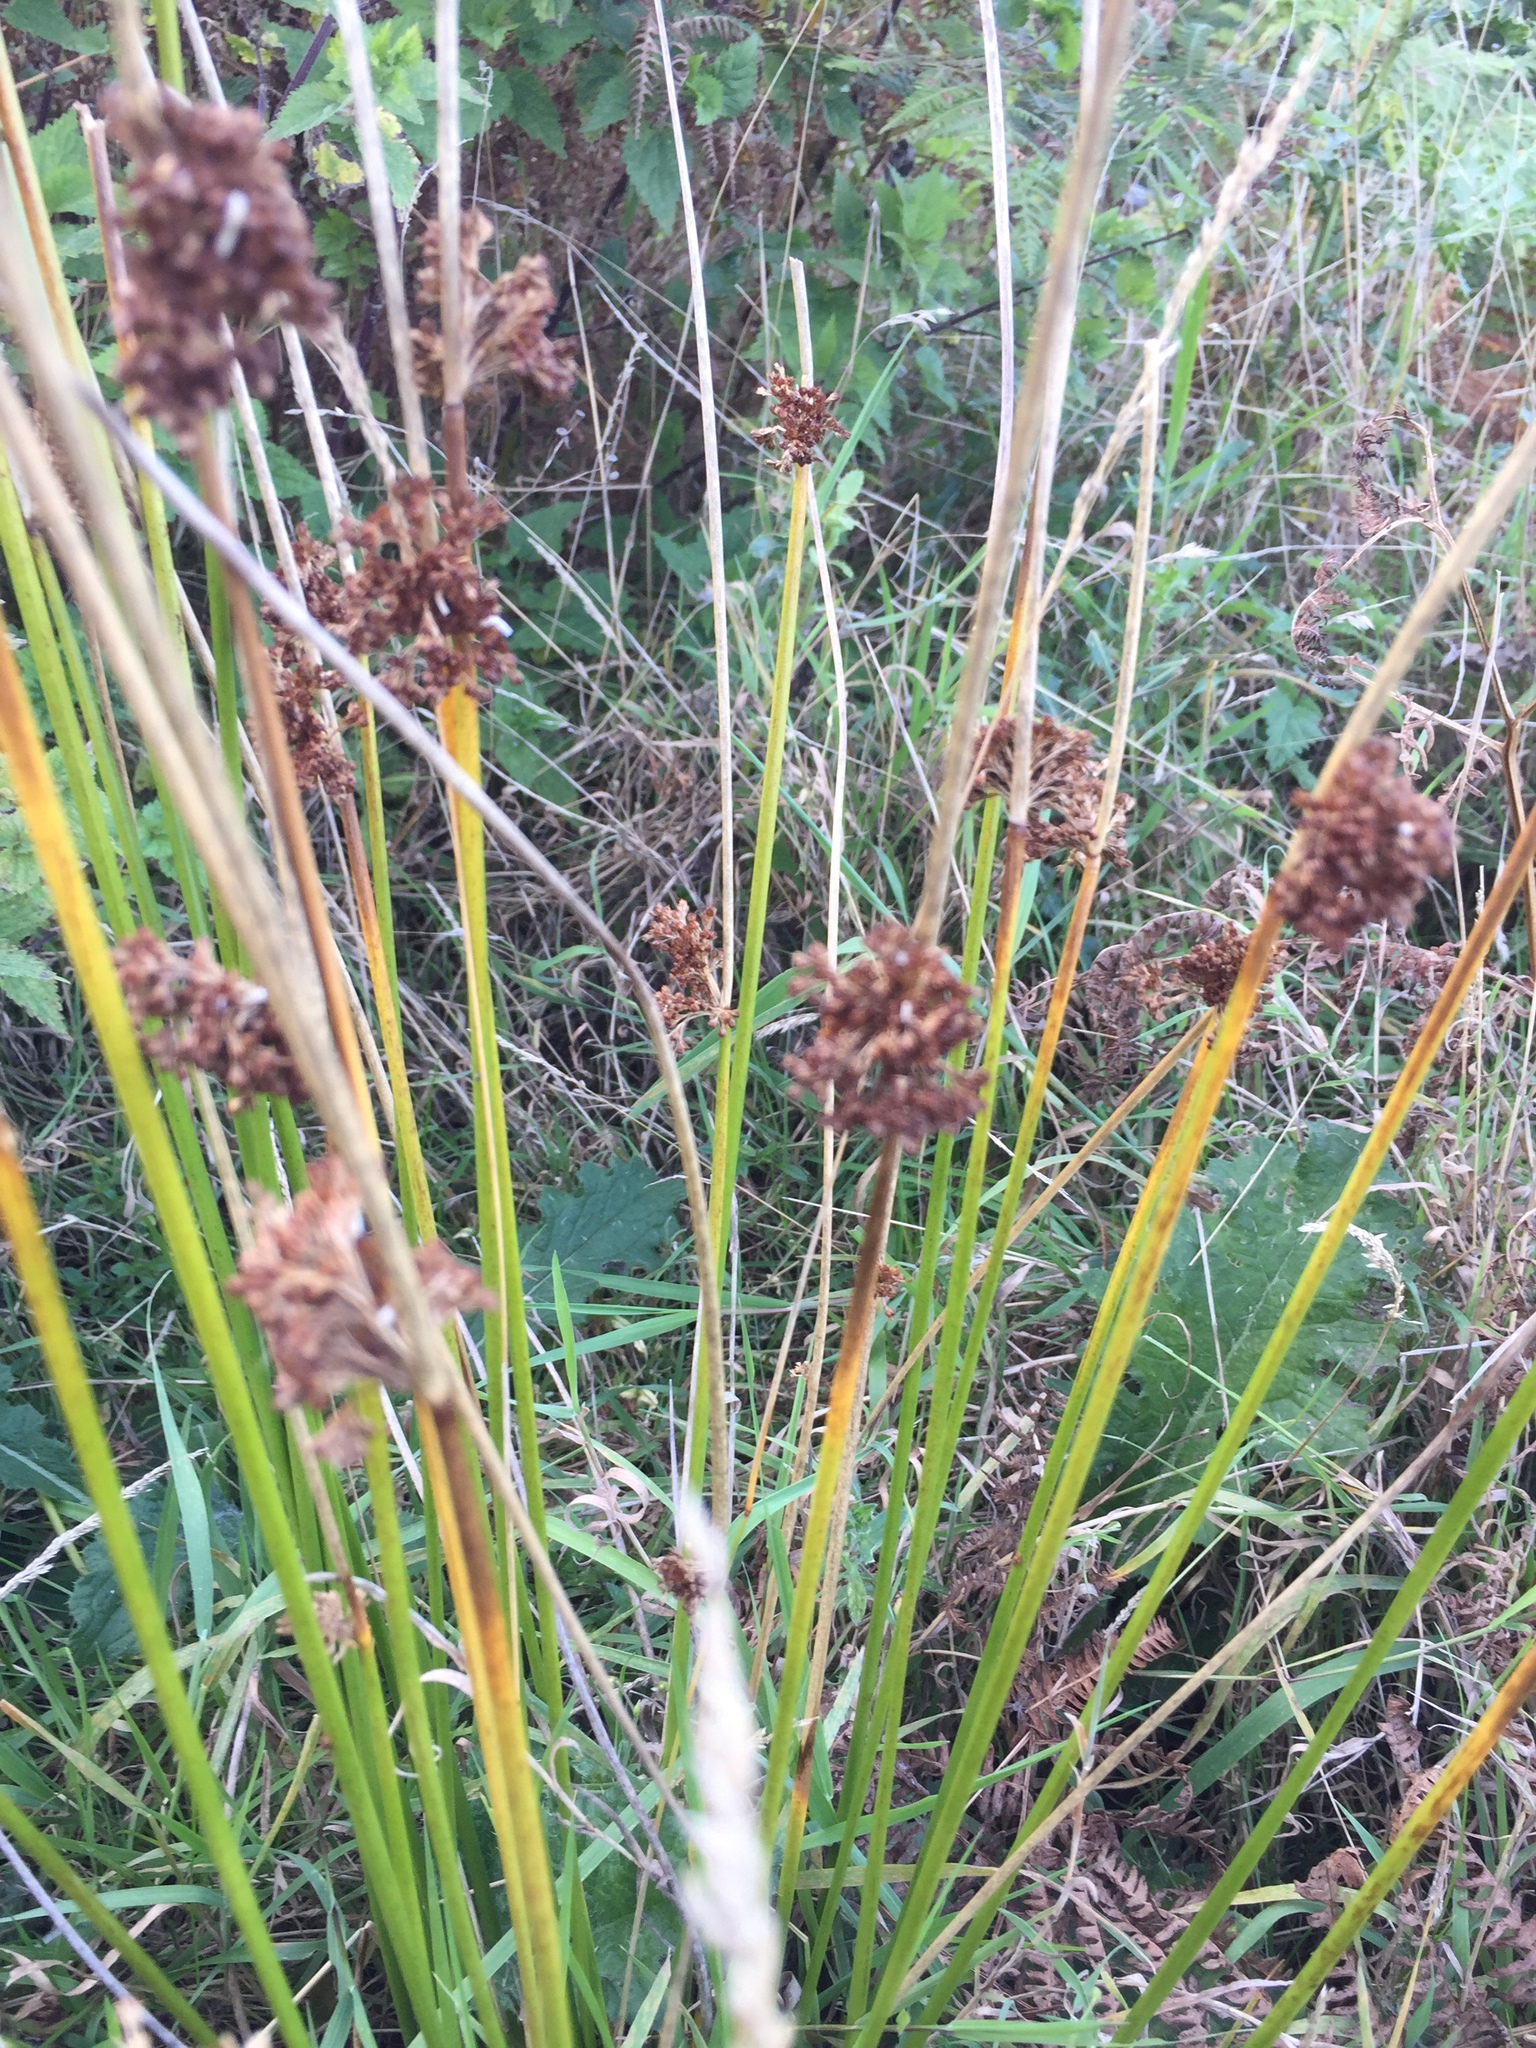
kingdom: Plantae
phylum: Tracheophyta
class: Liliopsida
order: Poales
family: Juncaceae
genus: Juncus
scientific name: Juncus effusus
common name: Soft rush
